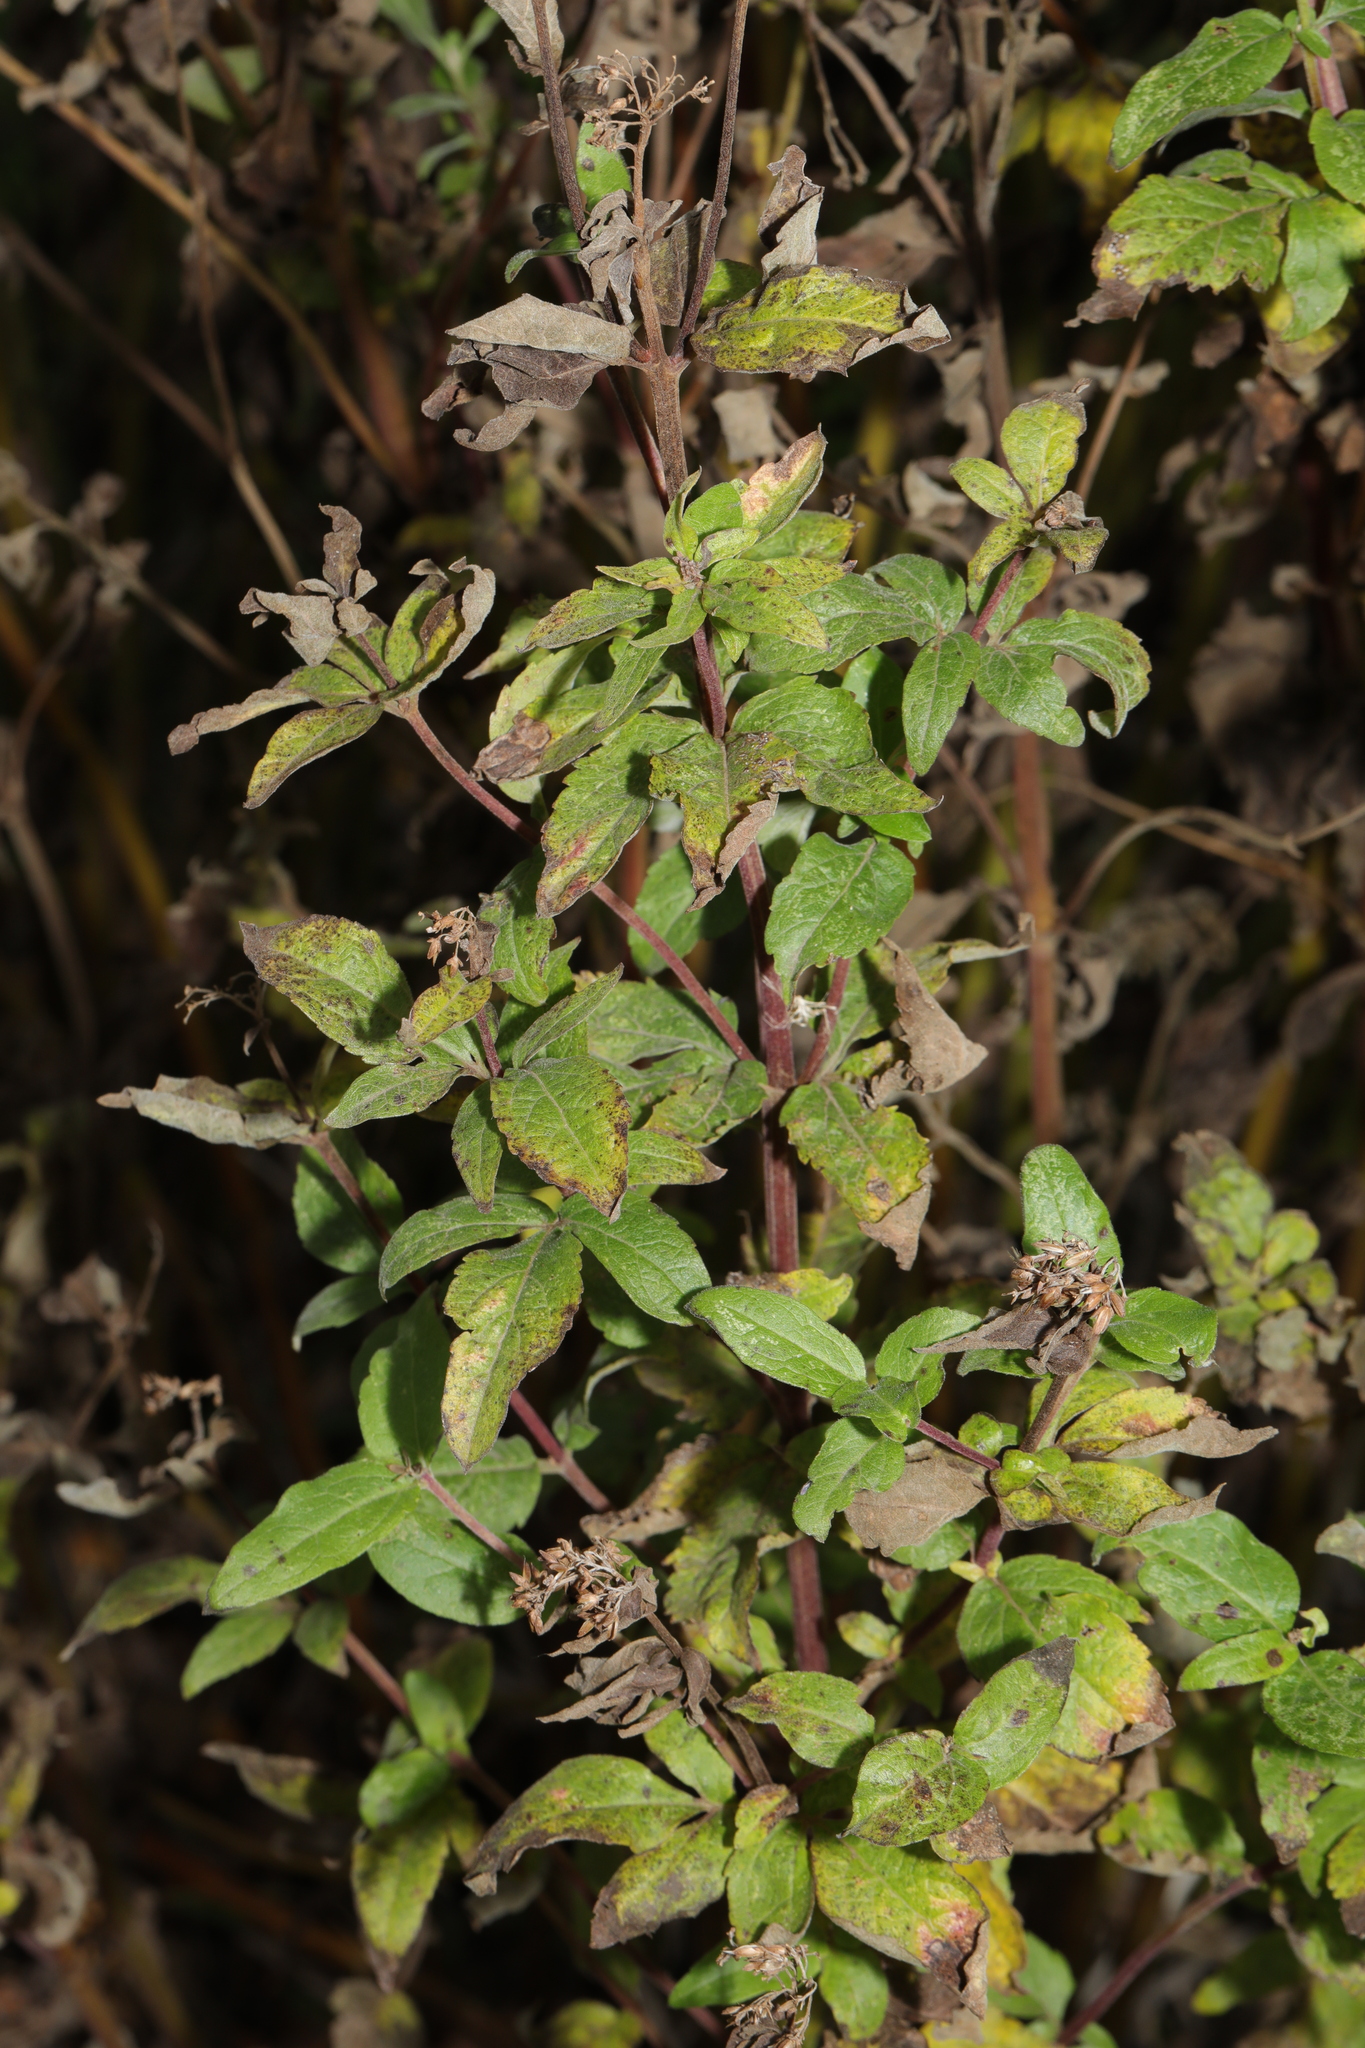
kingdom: Plantae
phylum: Tracheophyta
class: Magnoliopsida
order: Asterales
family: Asteraceae
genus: Eupatorium
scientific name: Eupatorium cannabinum
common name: Hemp-agrimony
